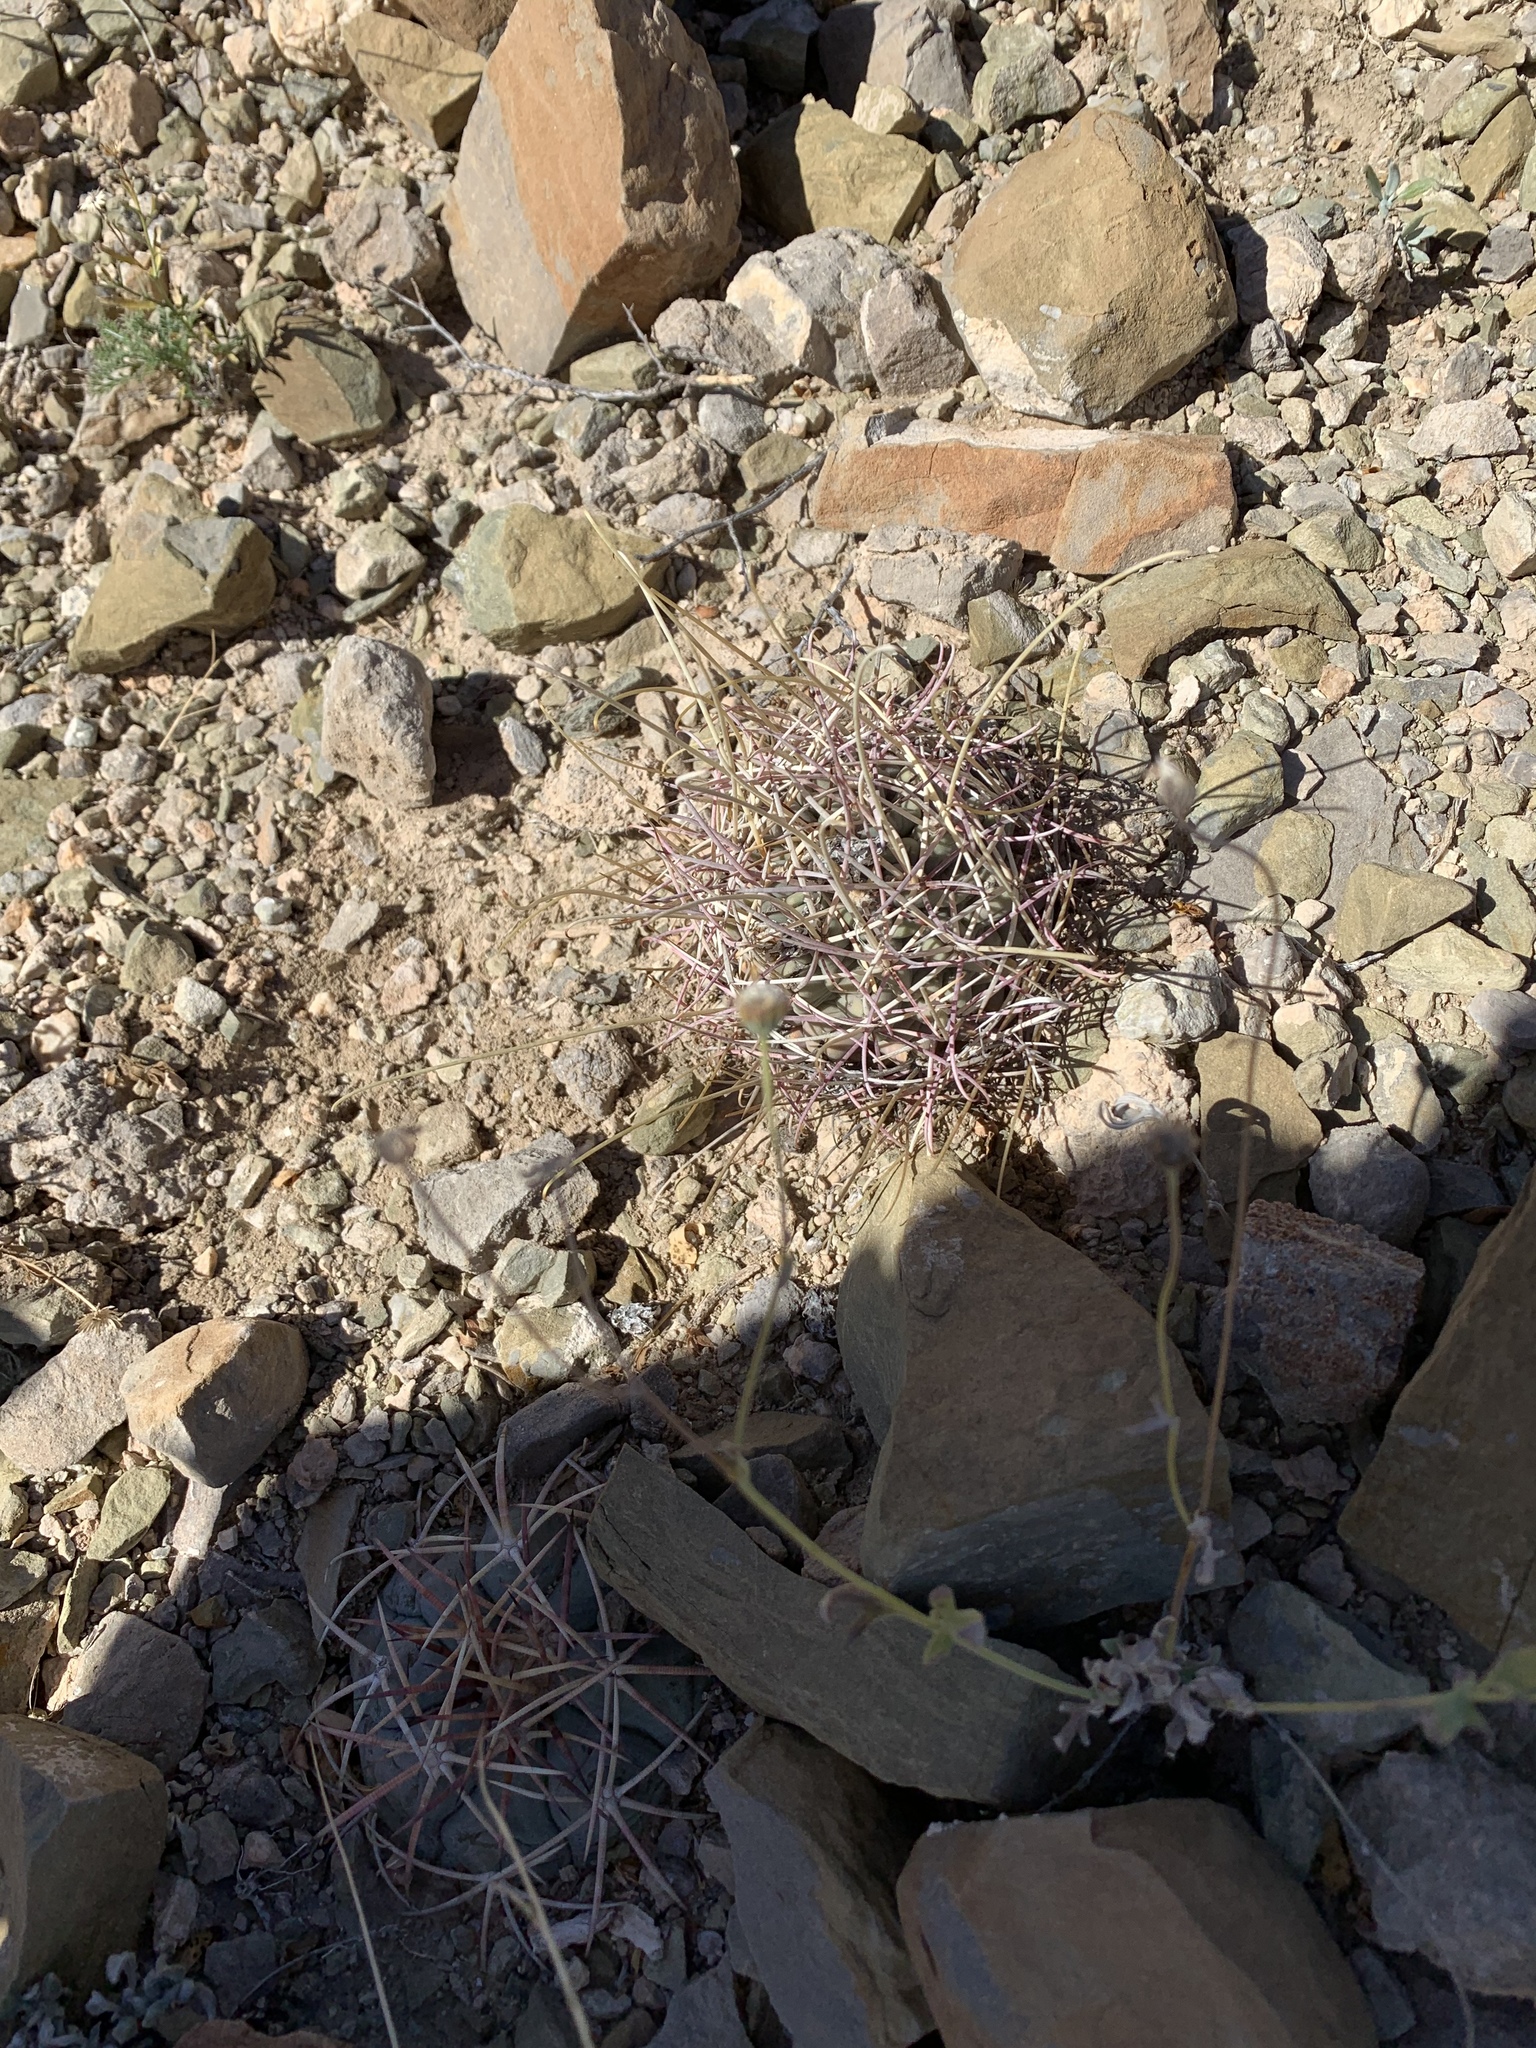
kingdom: Plantae
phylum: Tracheophyta
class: Magnoliopsida
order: Caryophyllales
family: Cactaceae
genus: Ferocactus
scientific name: Ferocactus uncinatus
